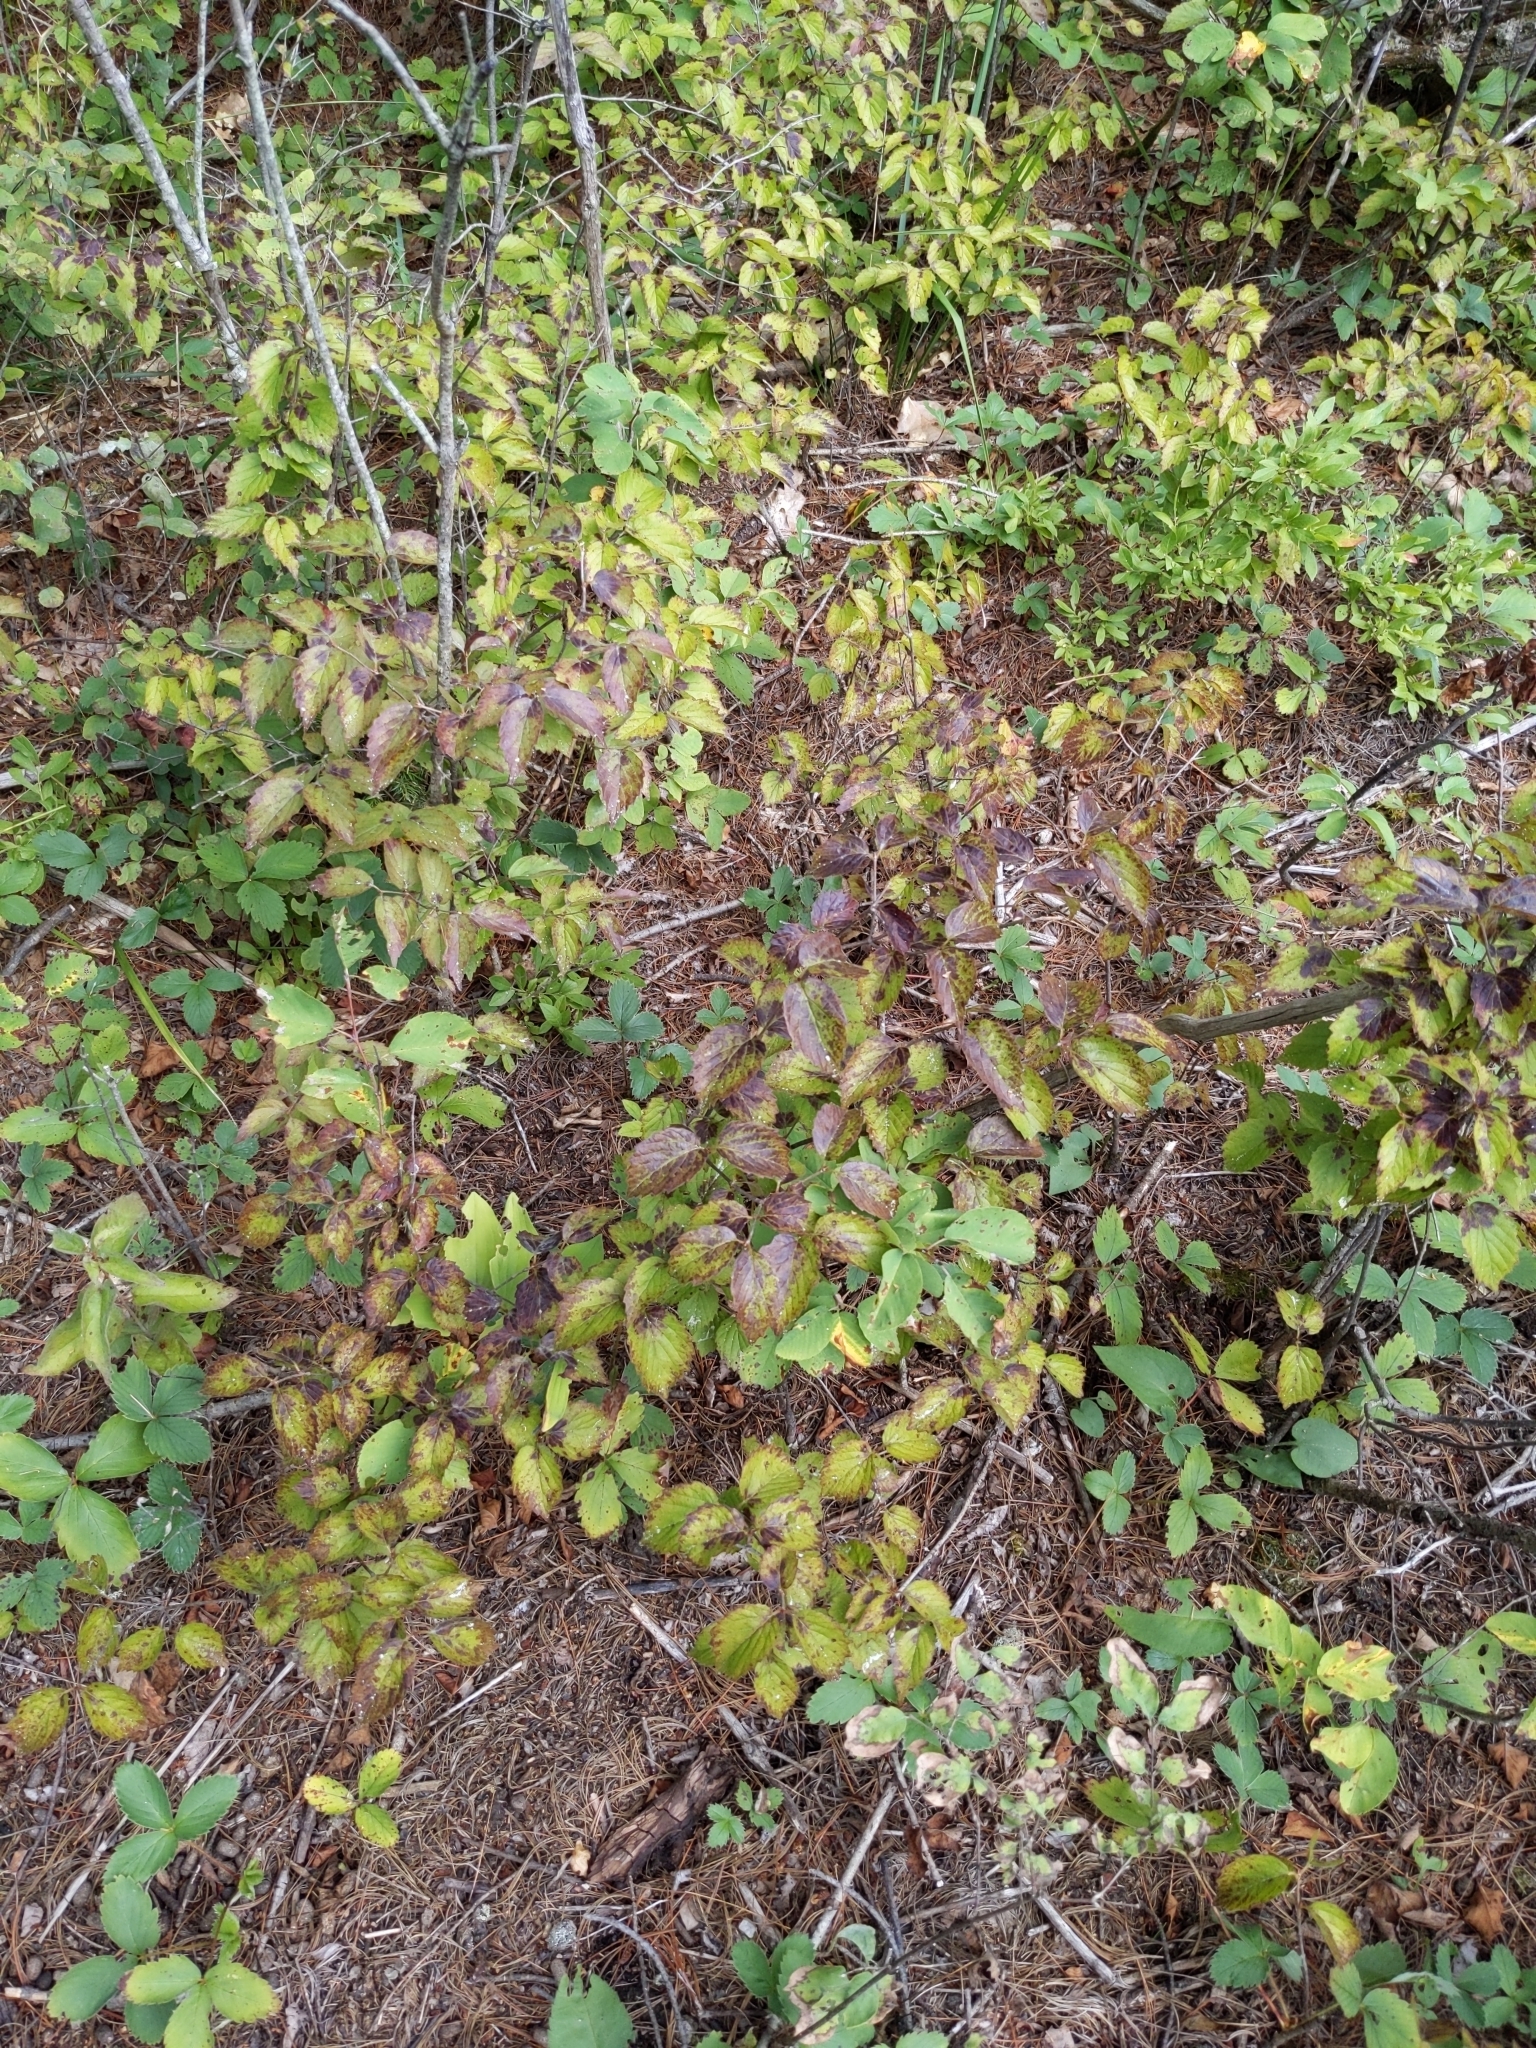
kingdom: Plantae
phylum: Tracheophyta
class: Magnoliopsida
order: Dipsacales
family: Viburnaceae
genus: Viburnum
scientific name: Viburnum rafinesqueanum
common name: Downy arrow-wood
